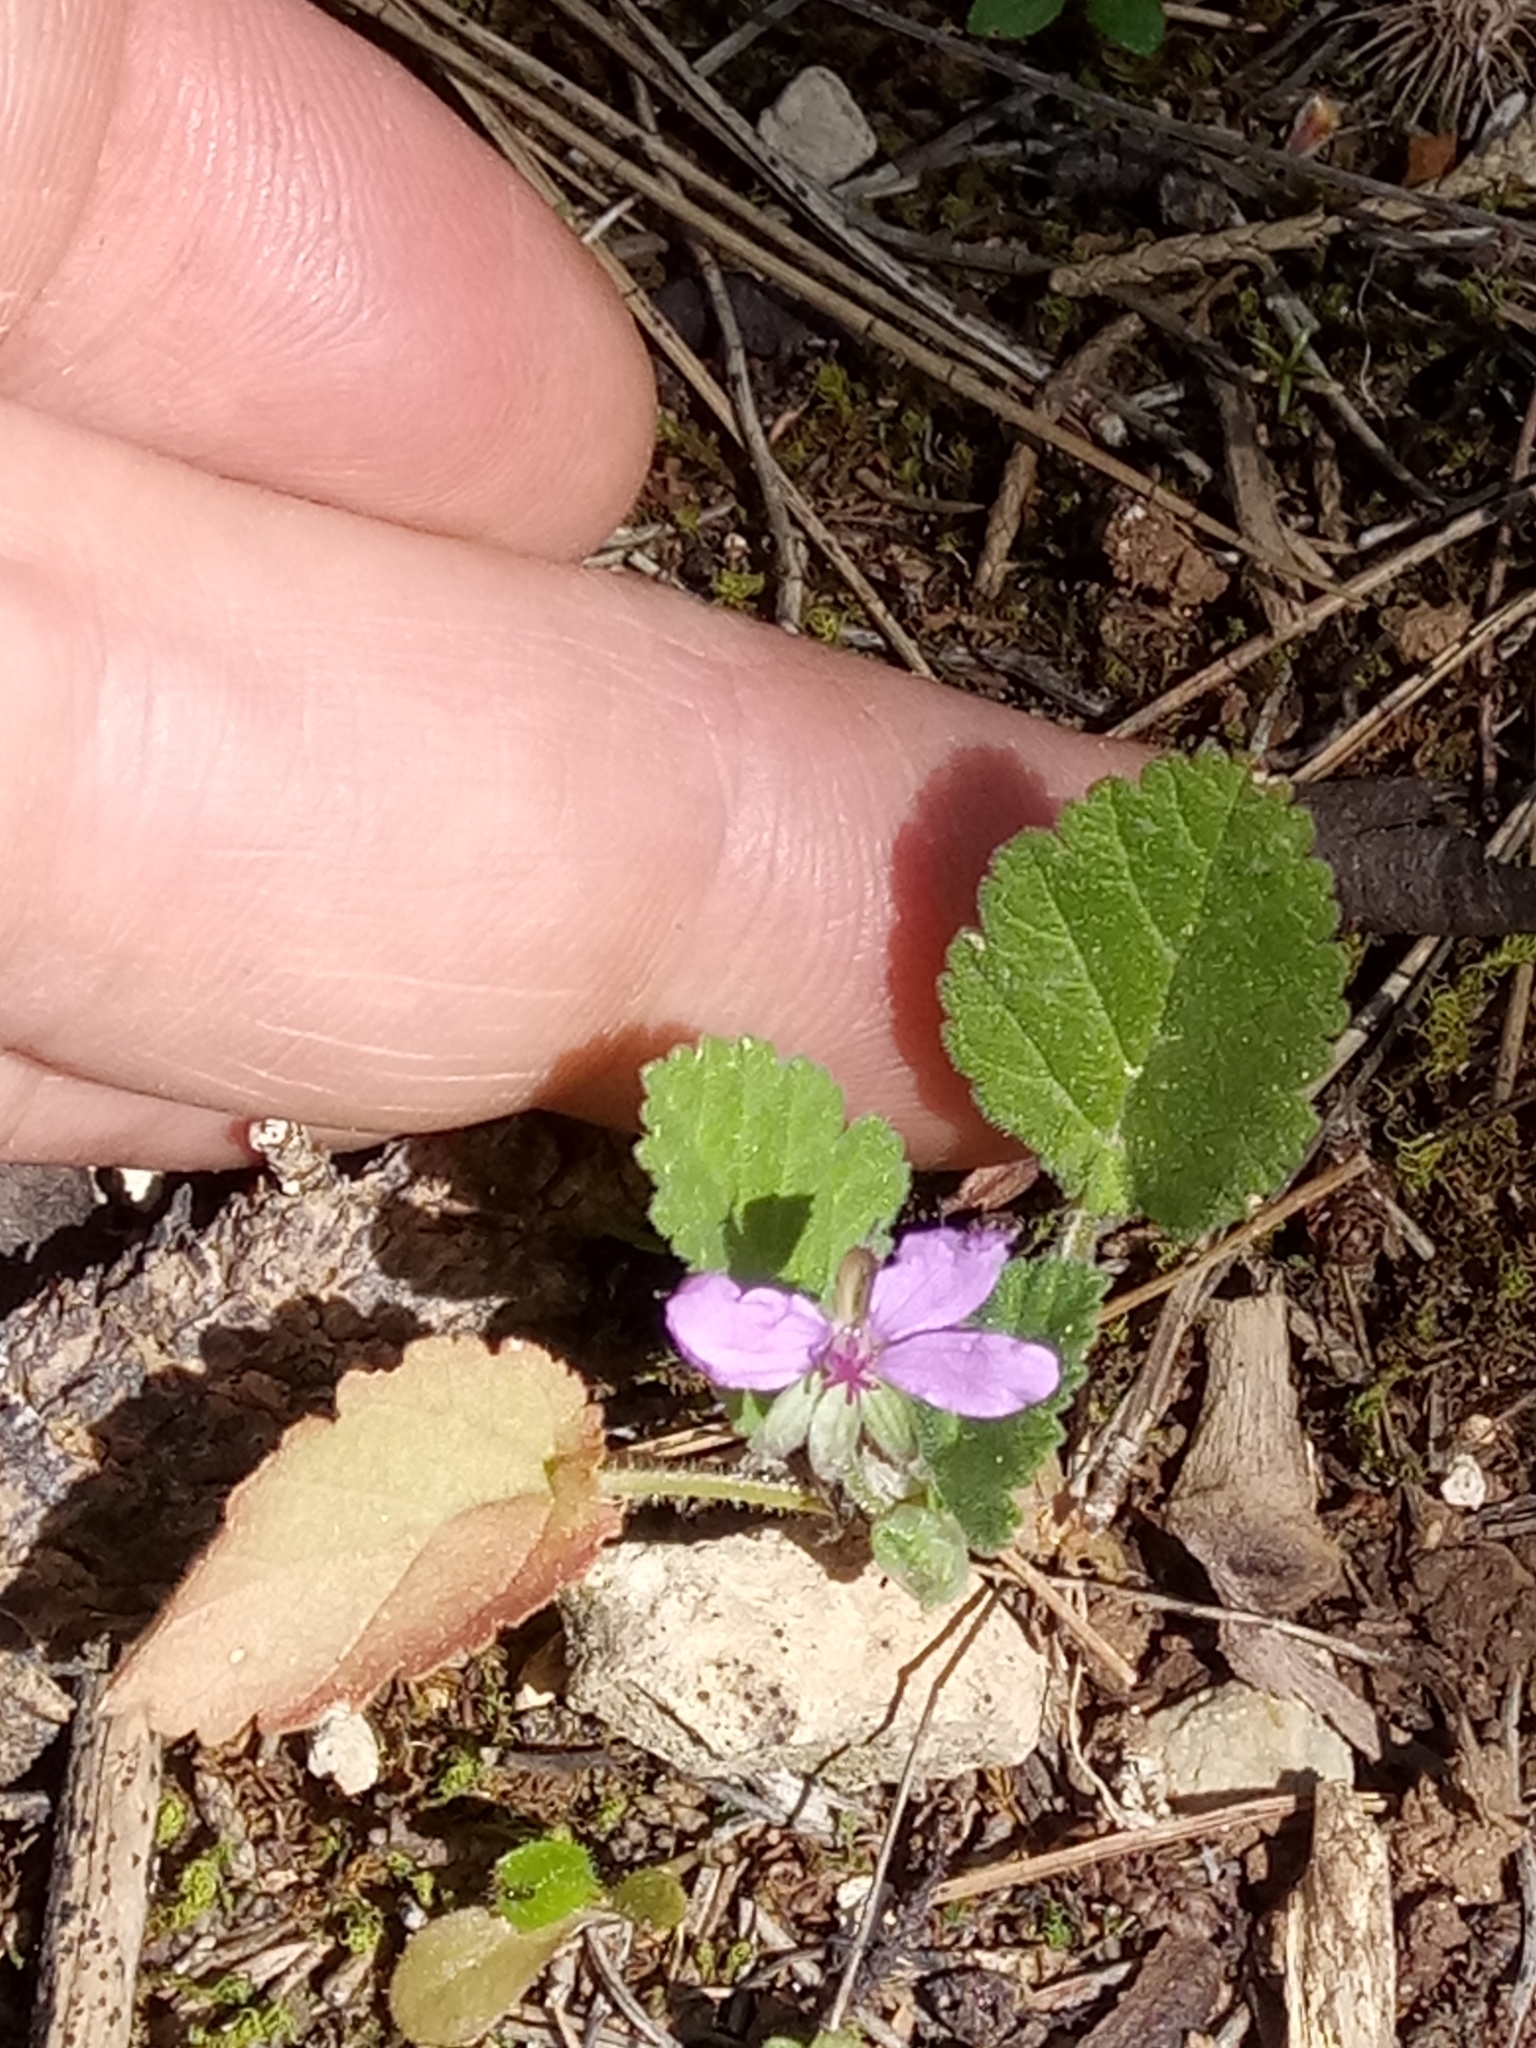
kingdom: Plantae
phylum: Tracheophyta
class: Magnoliopsida
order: Geraniales
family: Geraniaceae
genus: Erodium
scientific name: Erodium malacoides
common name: Soft stork's-bill
